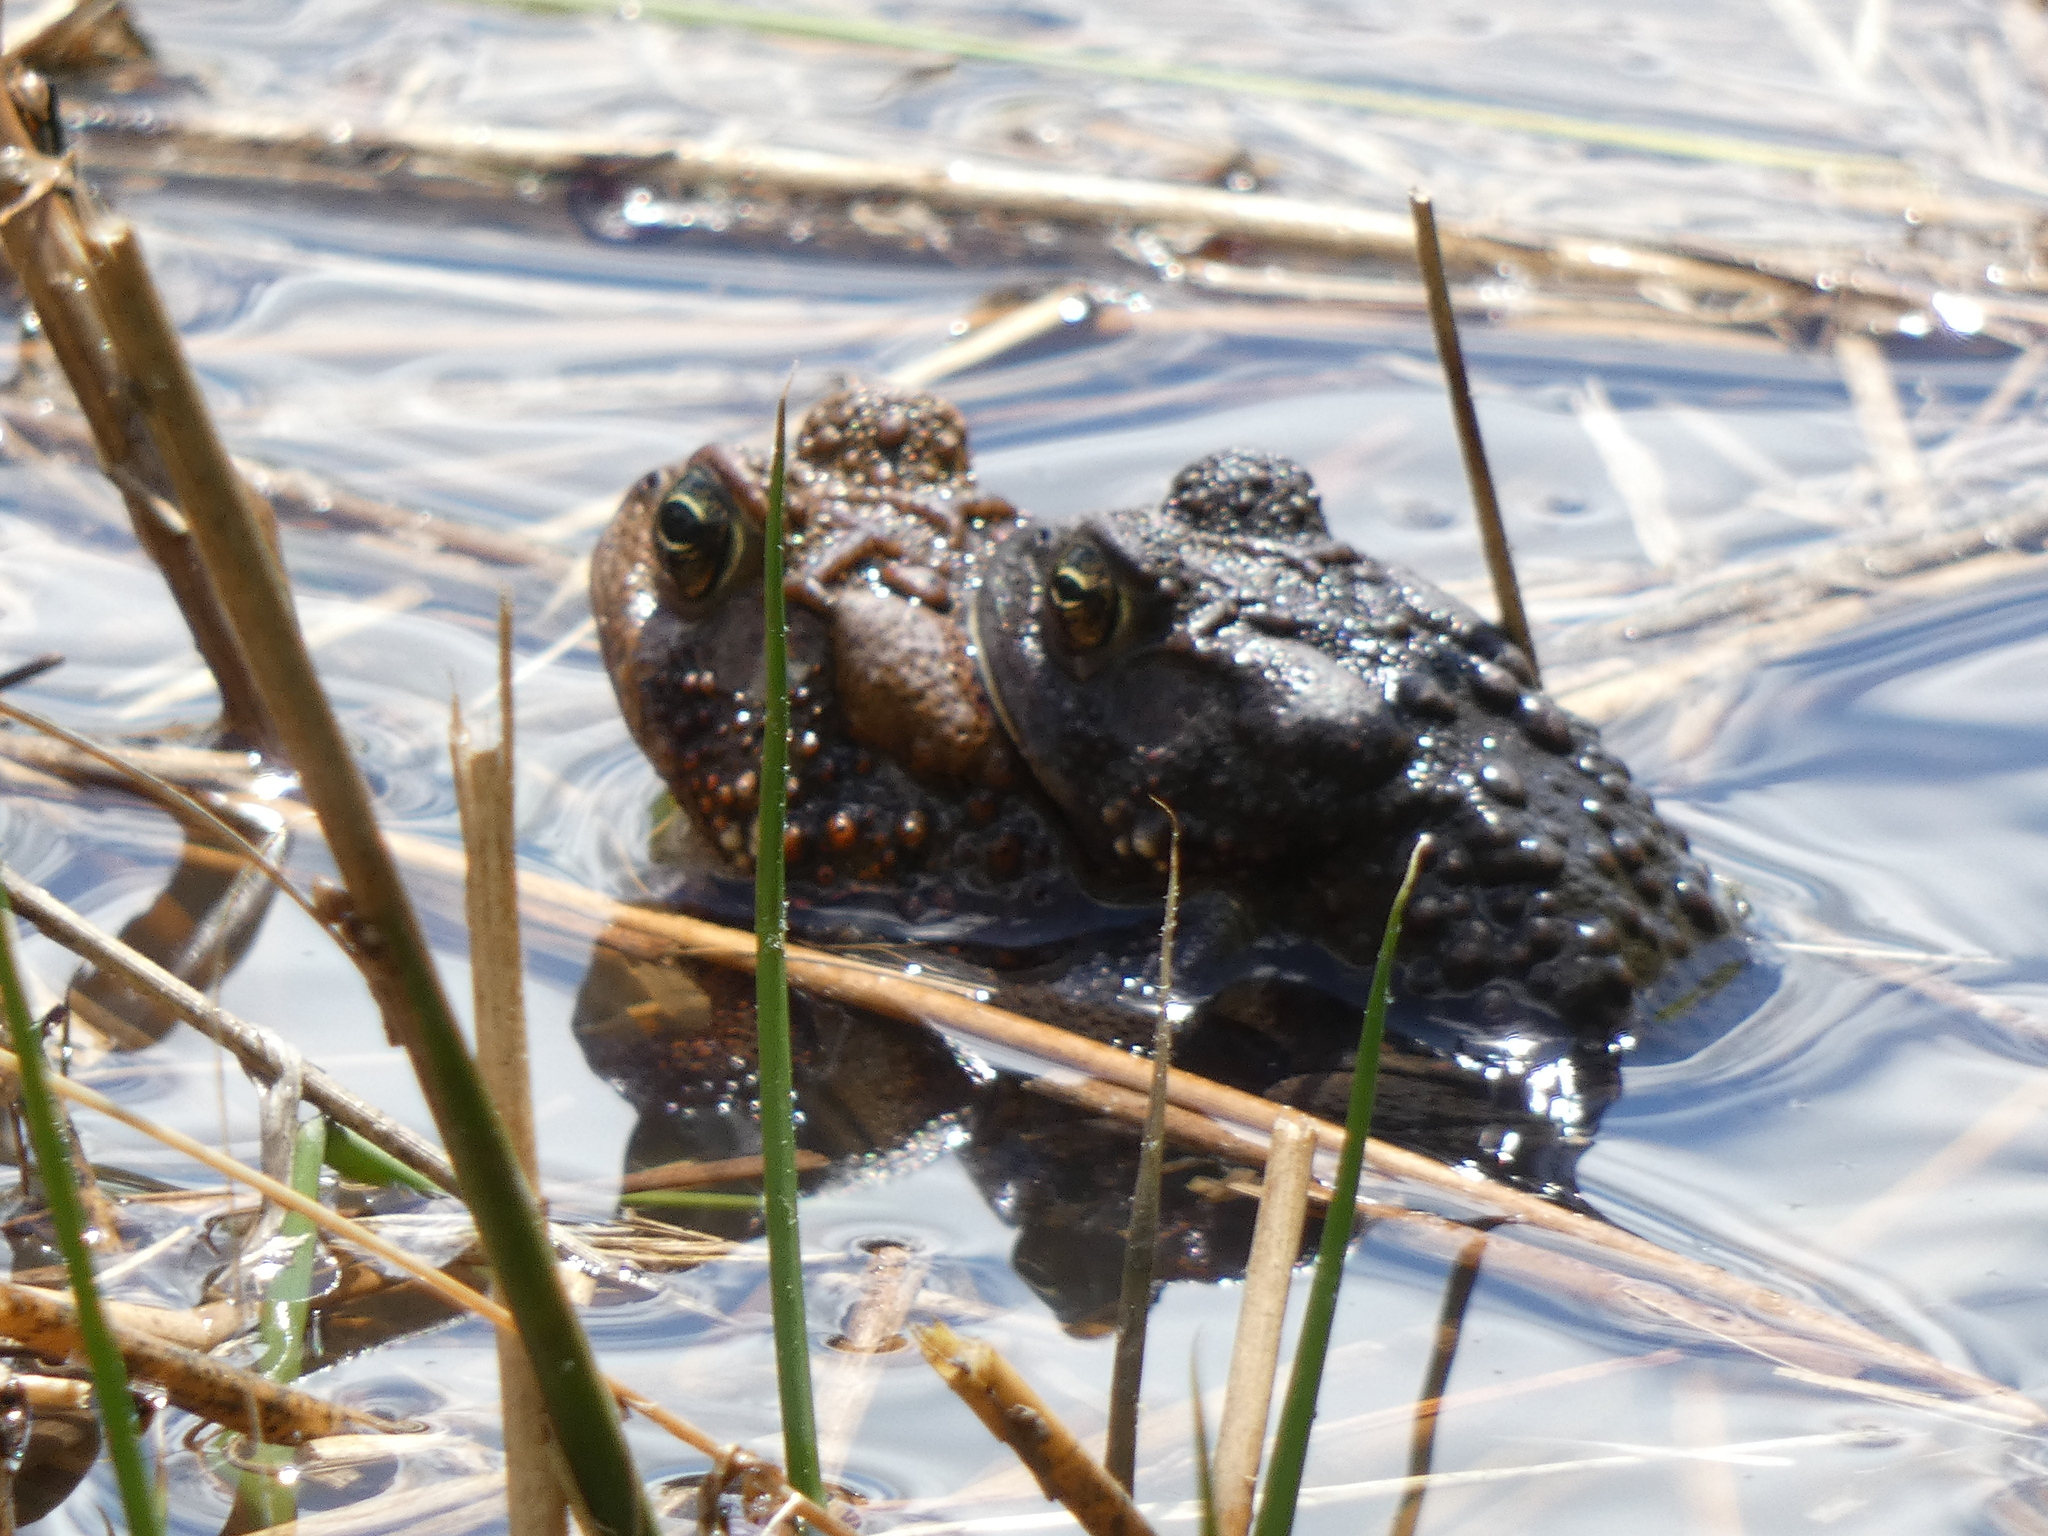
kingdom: Animalia
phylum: Chordata
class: Amphibia
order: Anura
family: Bufonidae
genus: Anaxyrus
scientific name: Anaxyrus americanus
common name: American toad
